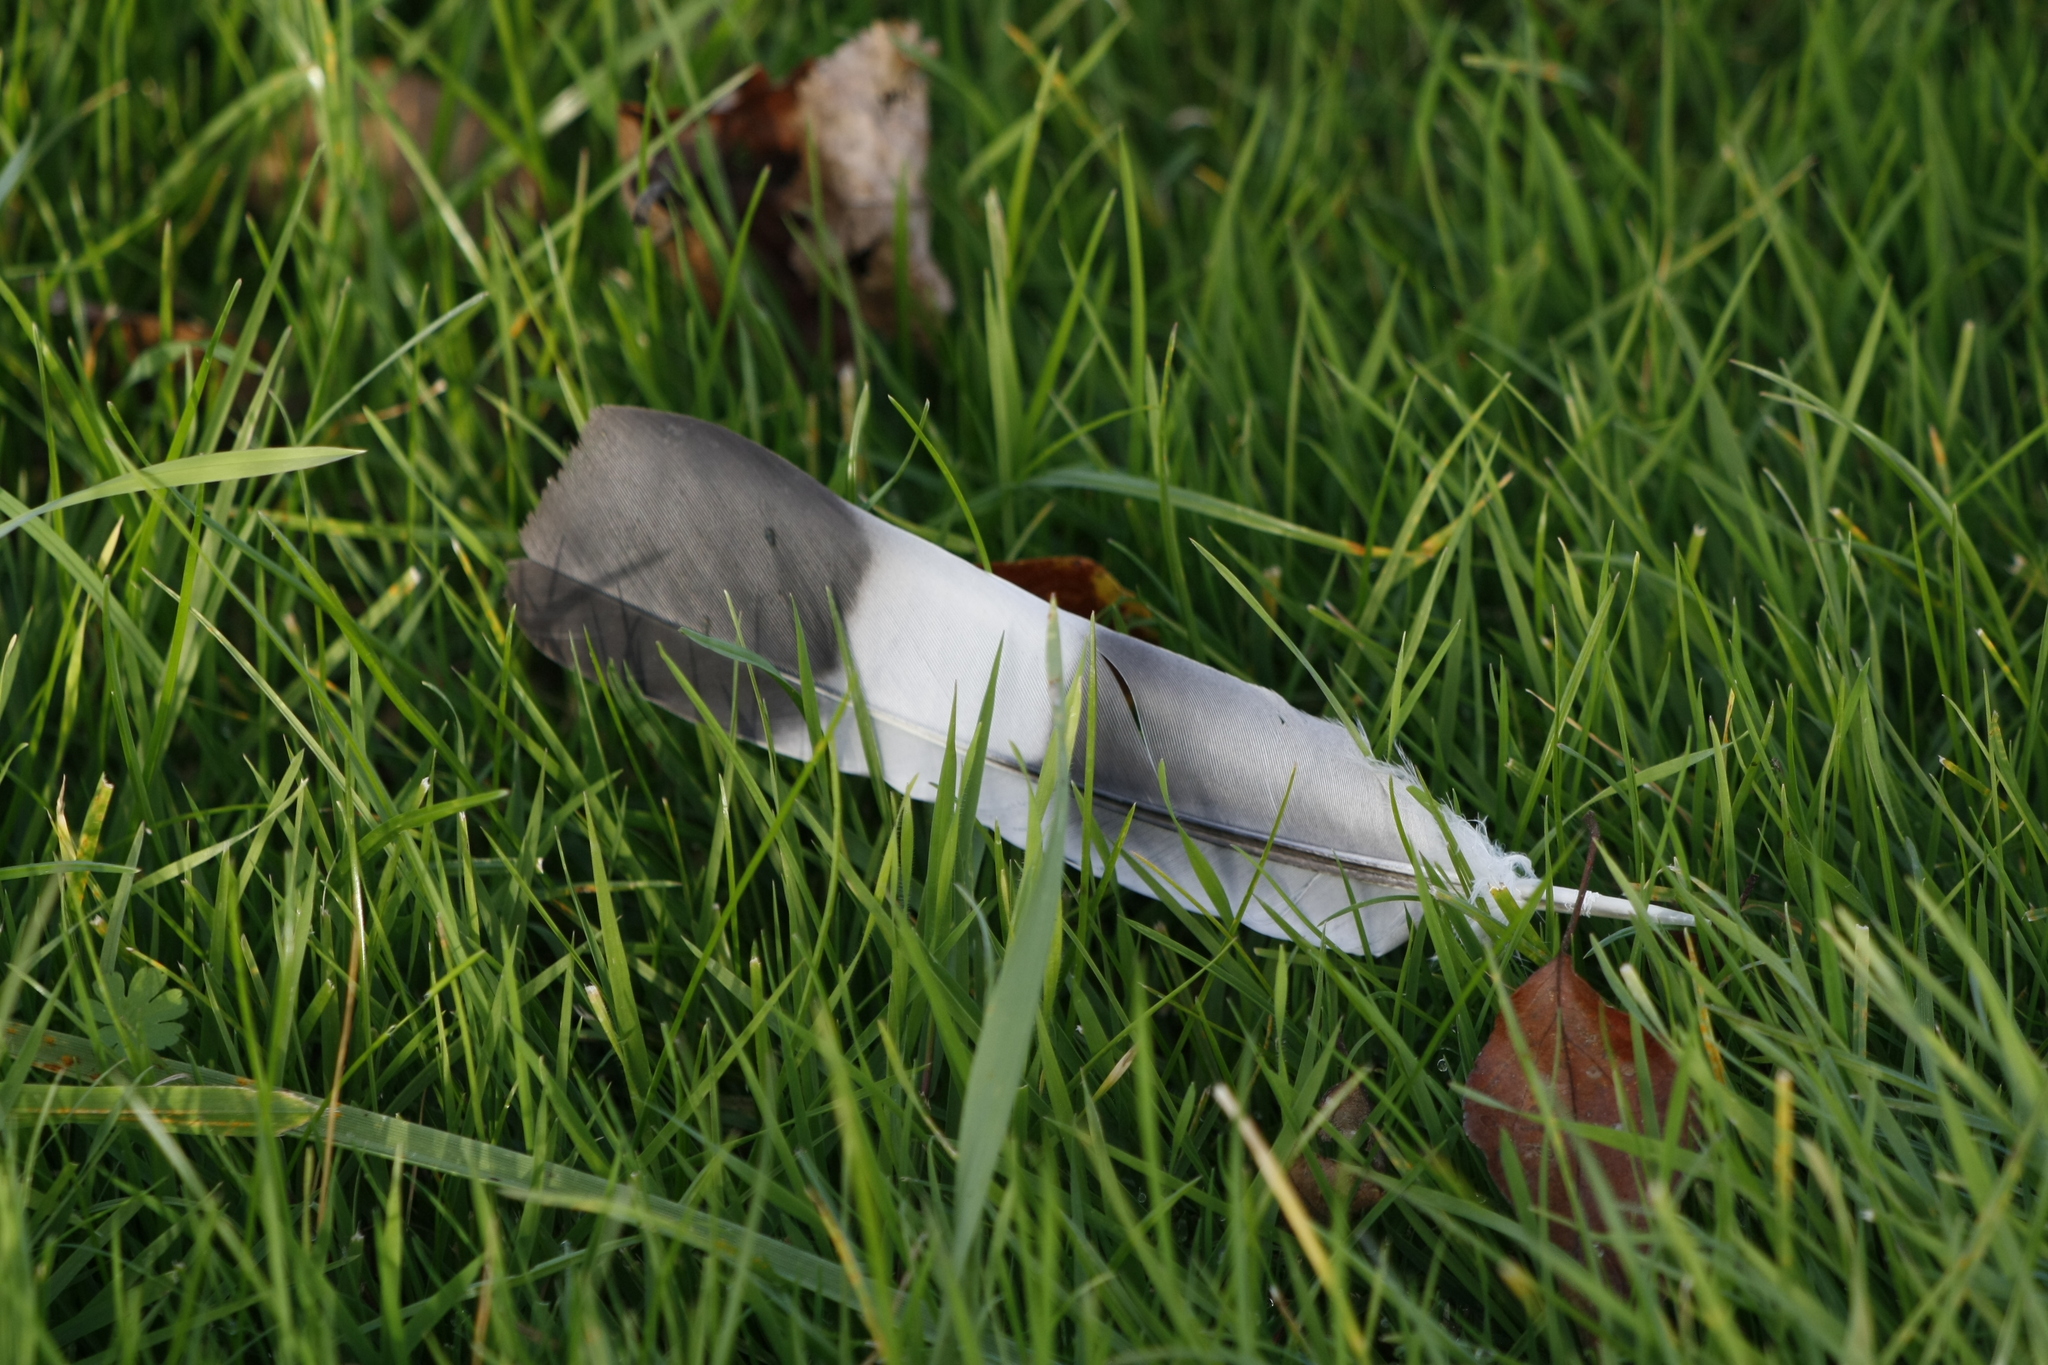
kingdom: Animalia
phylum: Chordata
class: Aves
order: Columbiformes
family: Columbidae
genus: Columba
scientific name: Columba palumbus
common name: Common wood pigeon
